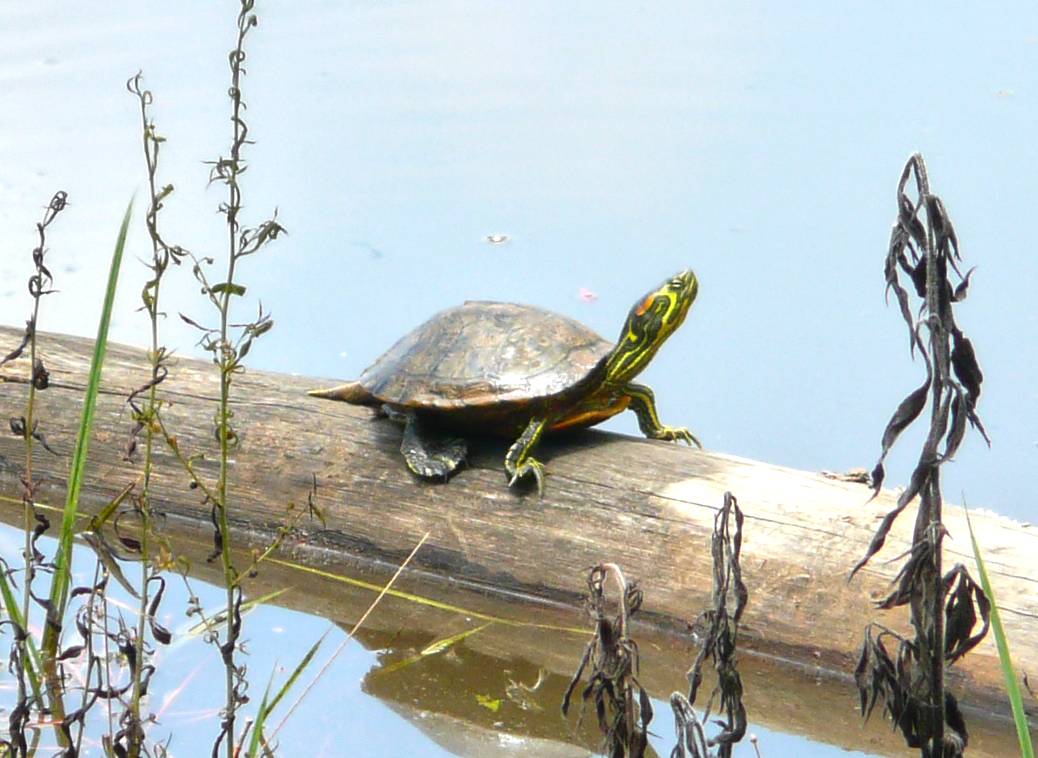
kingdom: Animalia
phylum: Chordata
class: Testudines
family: Emydidae
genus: Trachemys
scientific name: Trachemys scripta
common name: Slider
